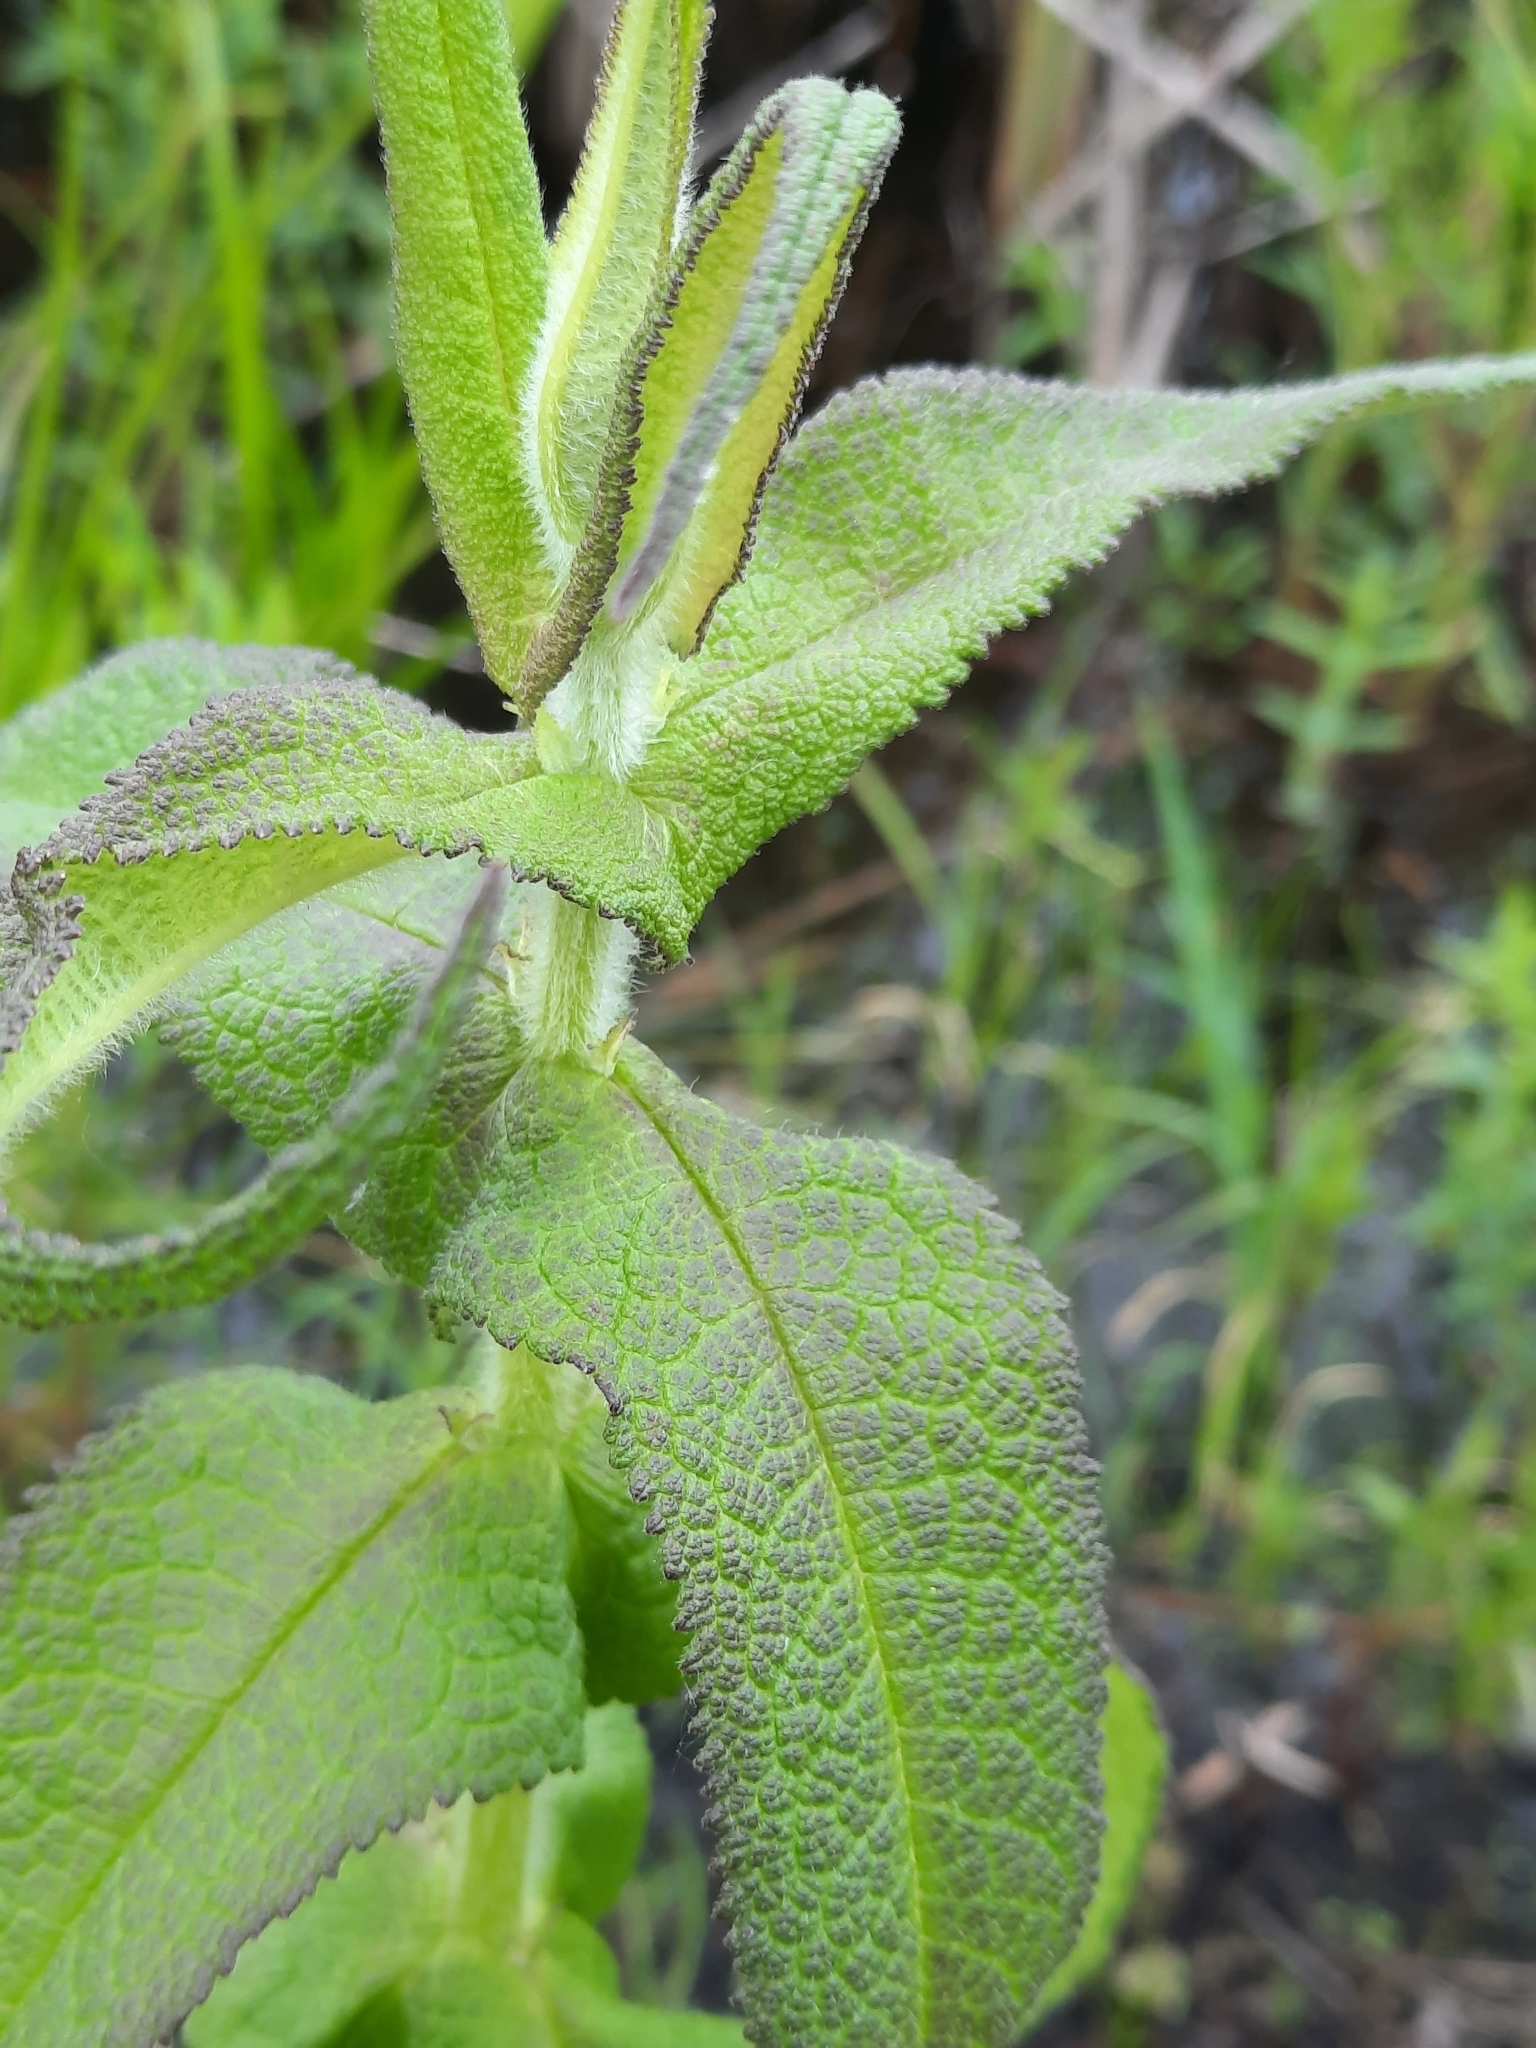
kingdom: Plantae
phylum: Tracheophyta
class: Magnoliopsida
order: Asterales
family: Asteraceae
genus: Eupatorium
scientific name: Eupatorium perfoliatum
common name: Boneset
